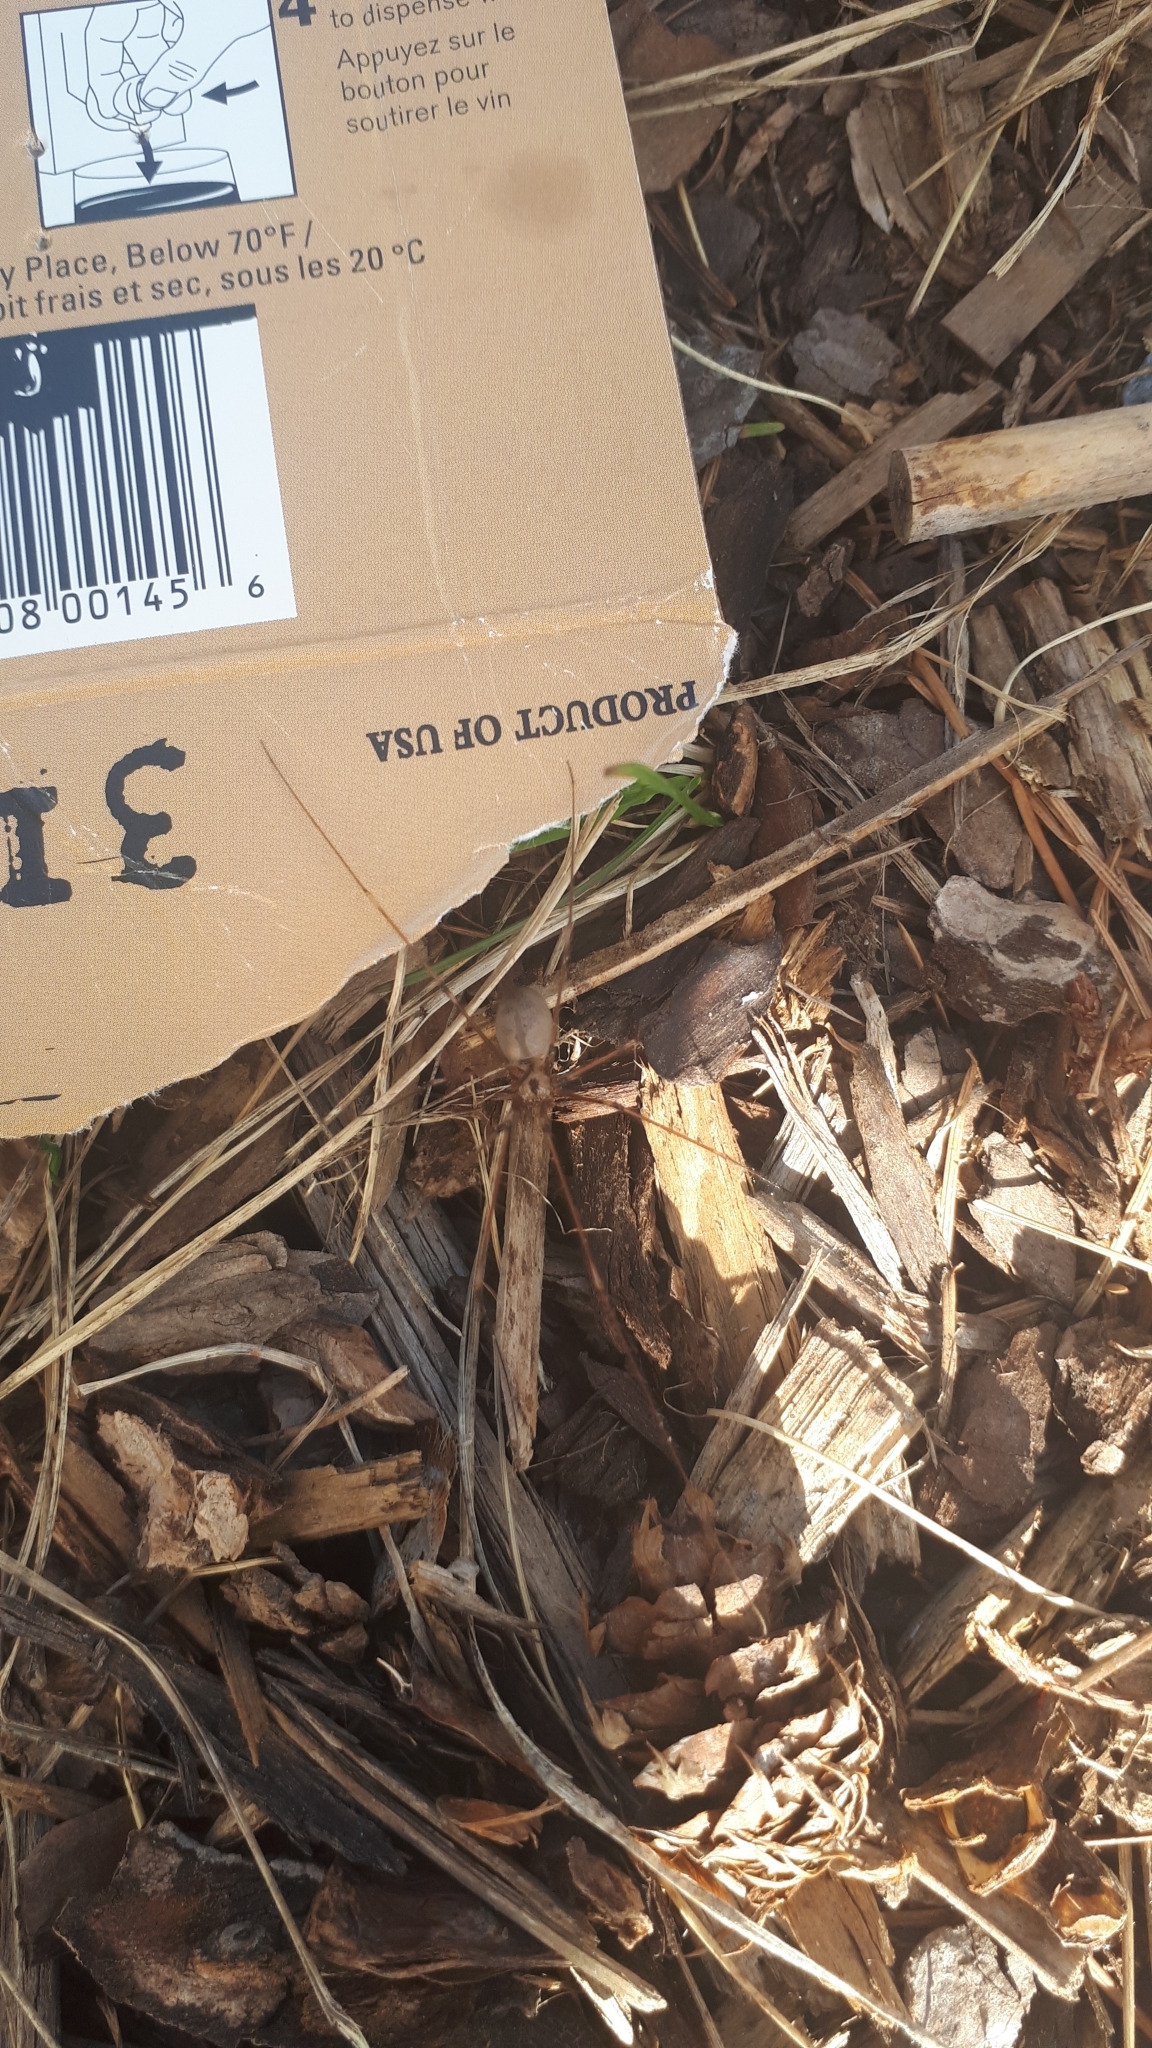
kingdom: Animalia
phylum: Arthropoda
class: Arachnida
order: Araneae
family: Pholcidae
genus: Pholcus
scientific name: Pholcus phalangioides
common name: Longbodied cellar spider
